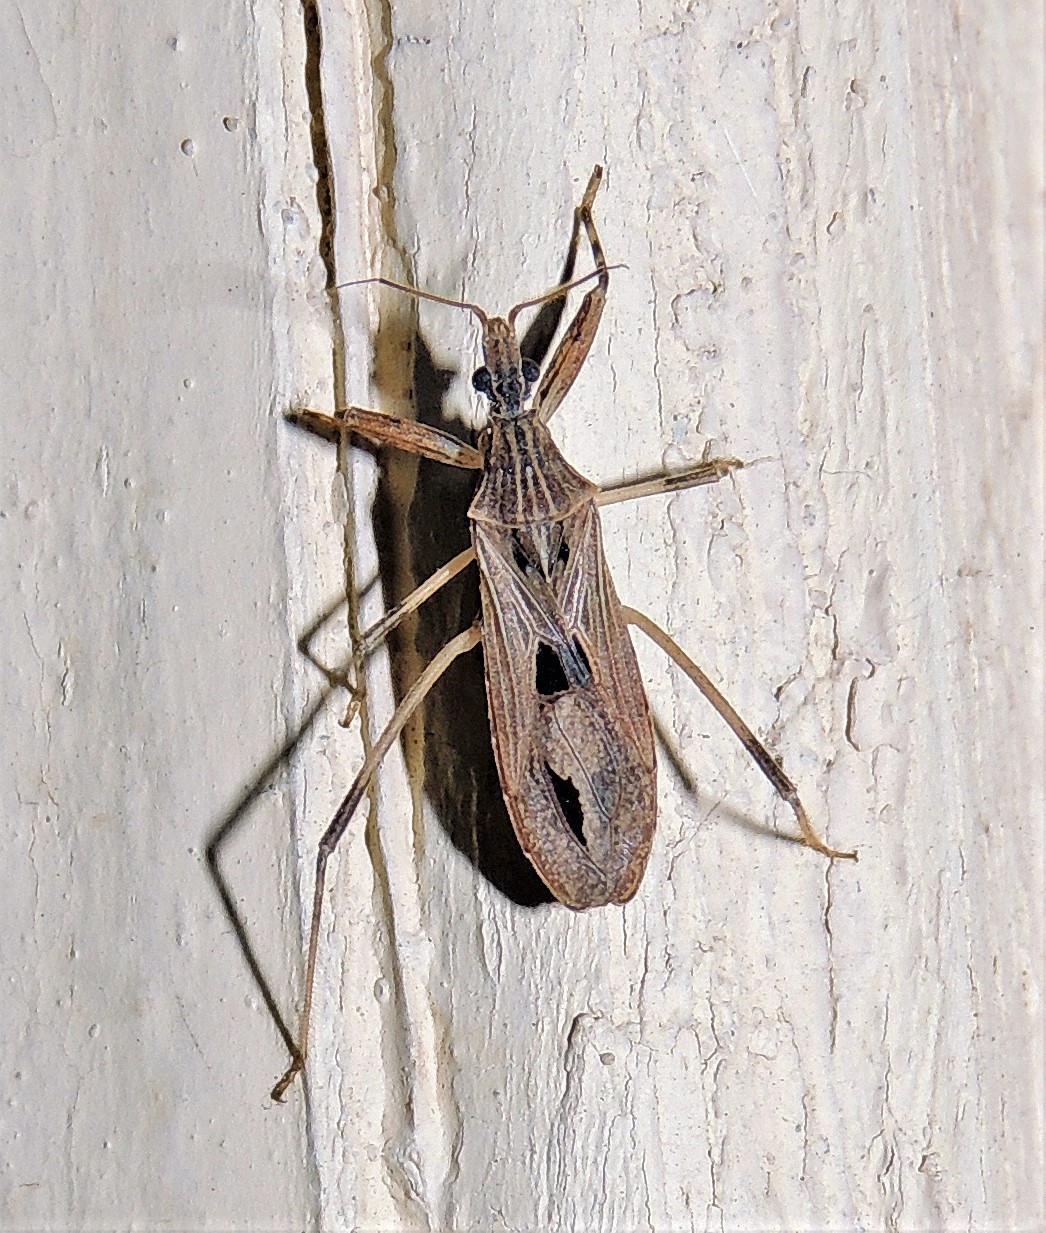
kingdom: Animalia
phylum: Arthropoda
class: Insecta
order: Hemiptera
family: Reduviidae
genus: Oncocephalus
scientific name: Oncocephalus validispinis
